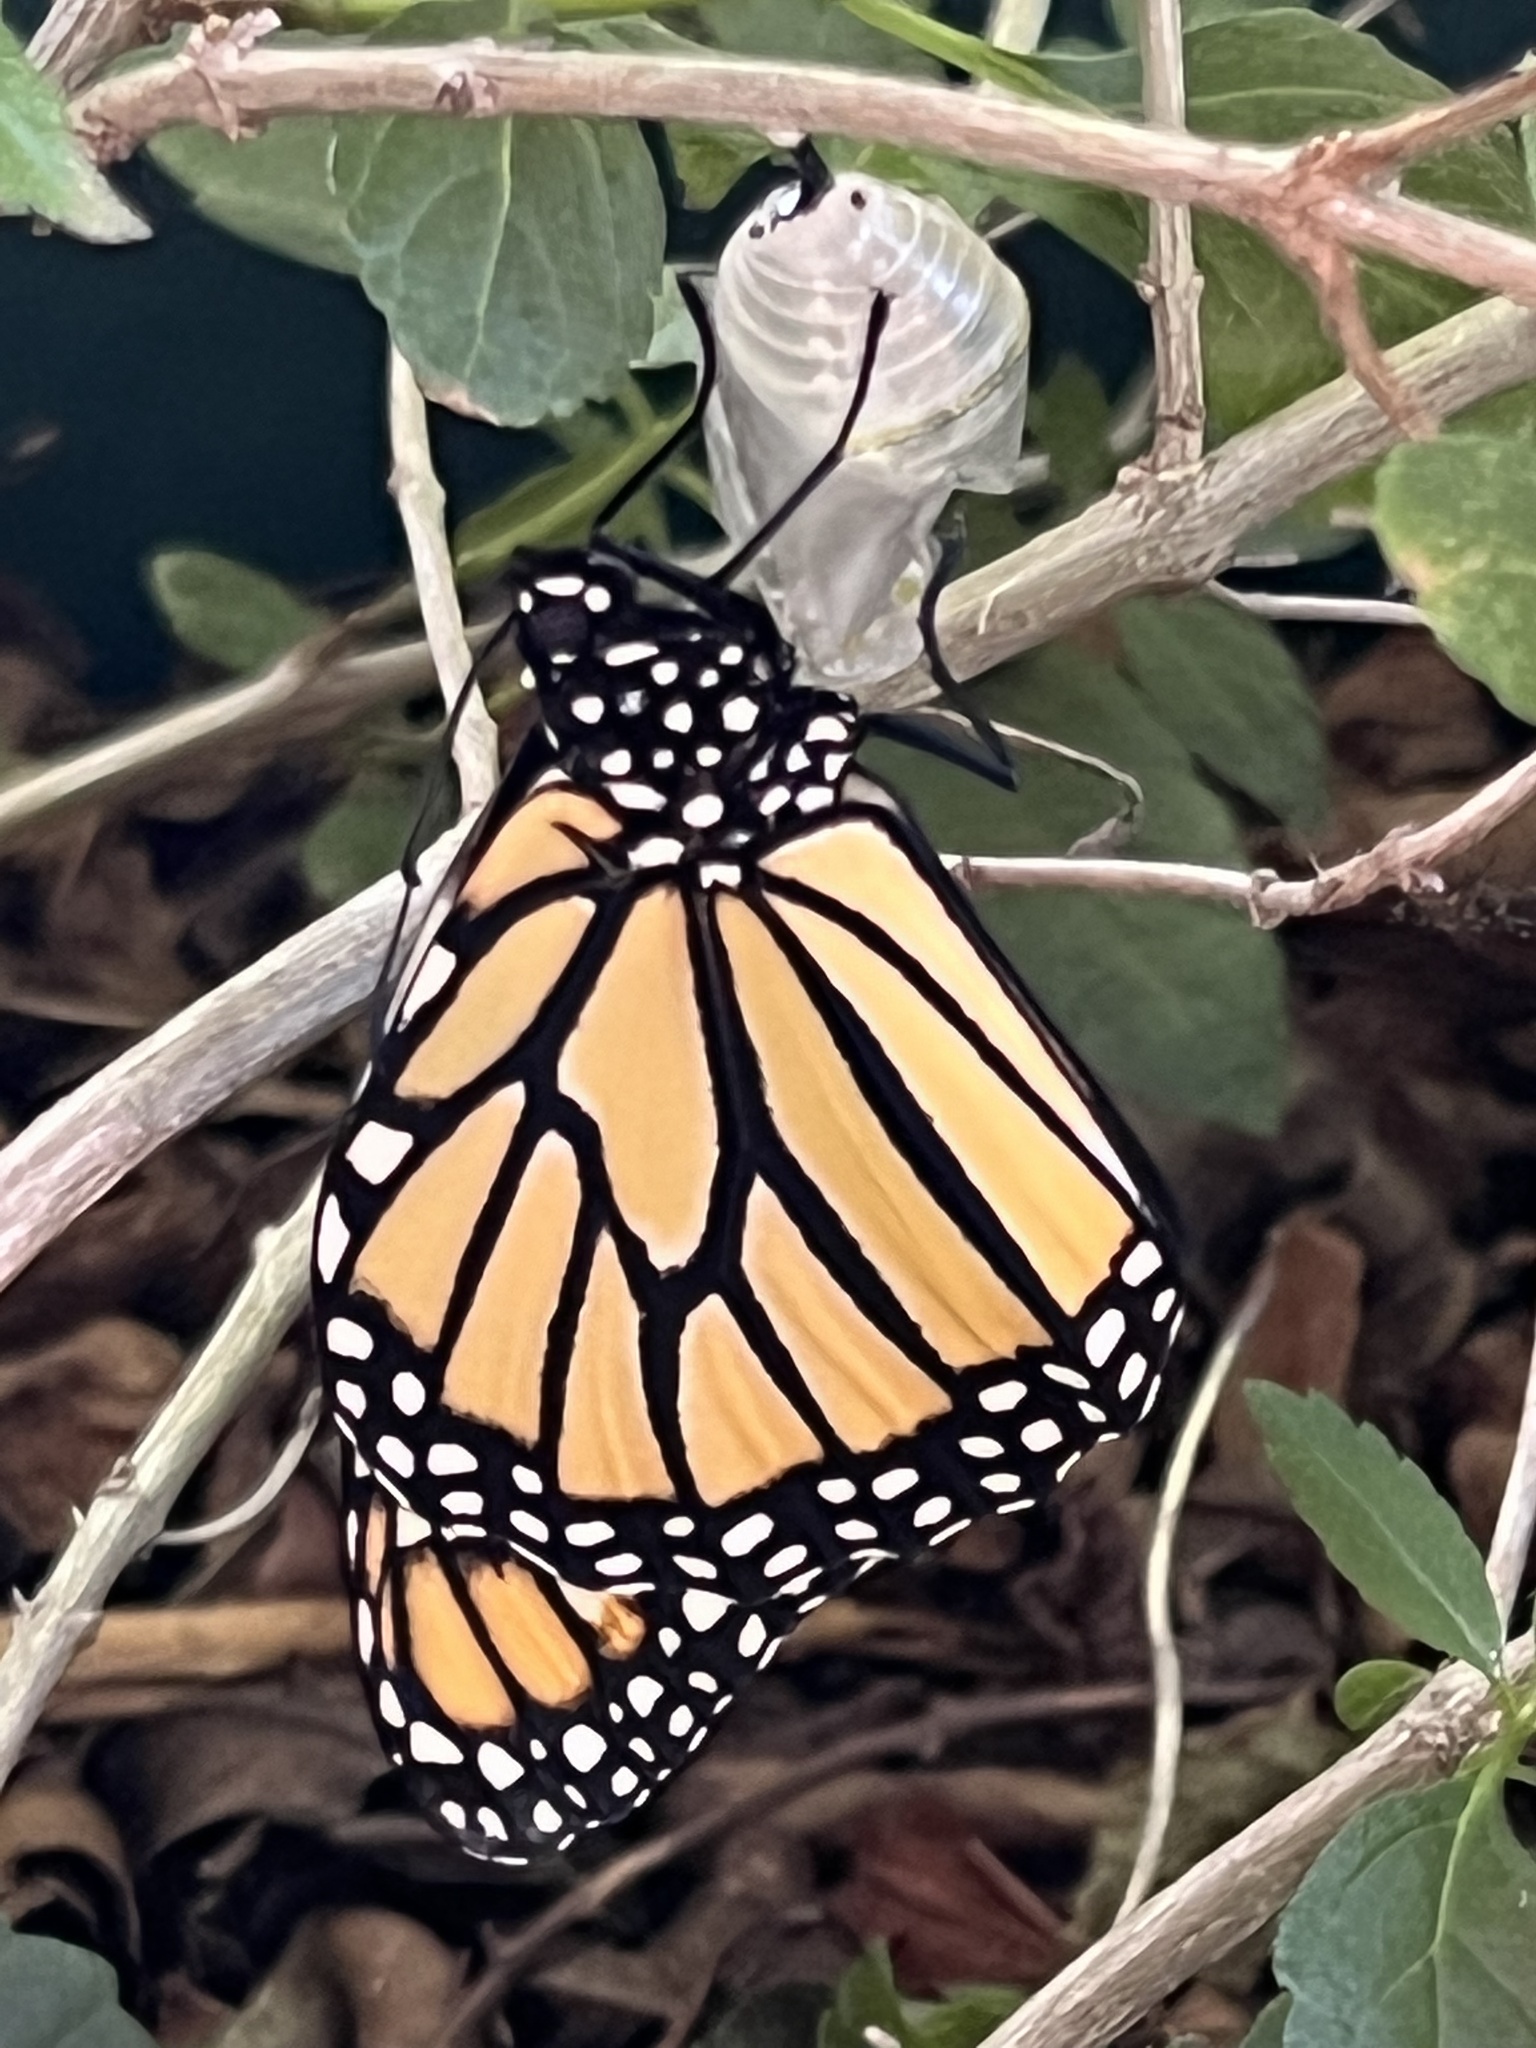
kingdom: Animalia
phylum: Arthropoda
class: Insecta
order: Lepidoptera
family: Nymphalidae
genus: Danaus
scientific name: Danaus plexippus
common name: Monarch
